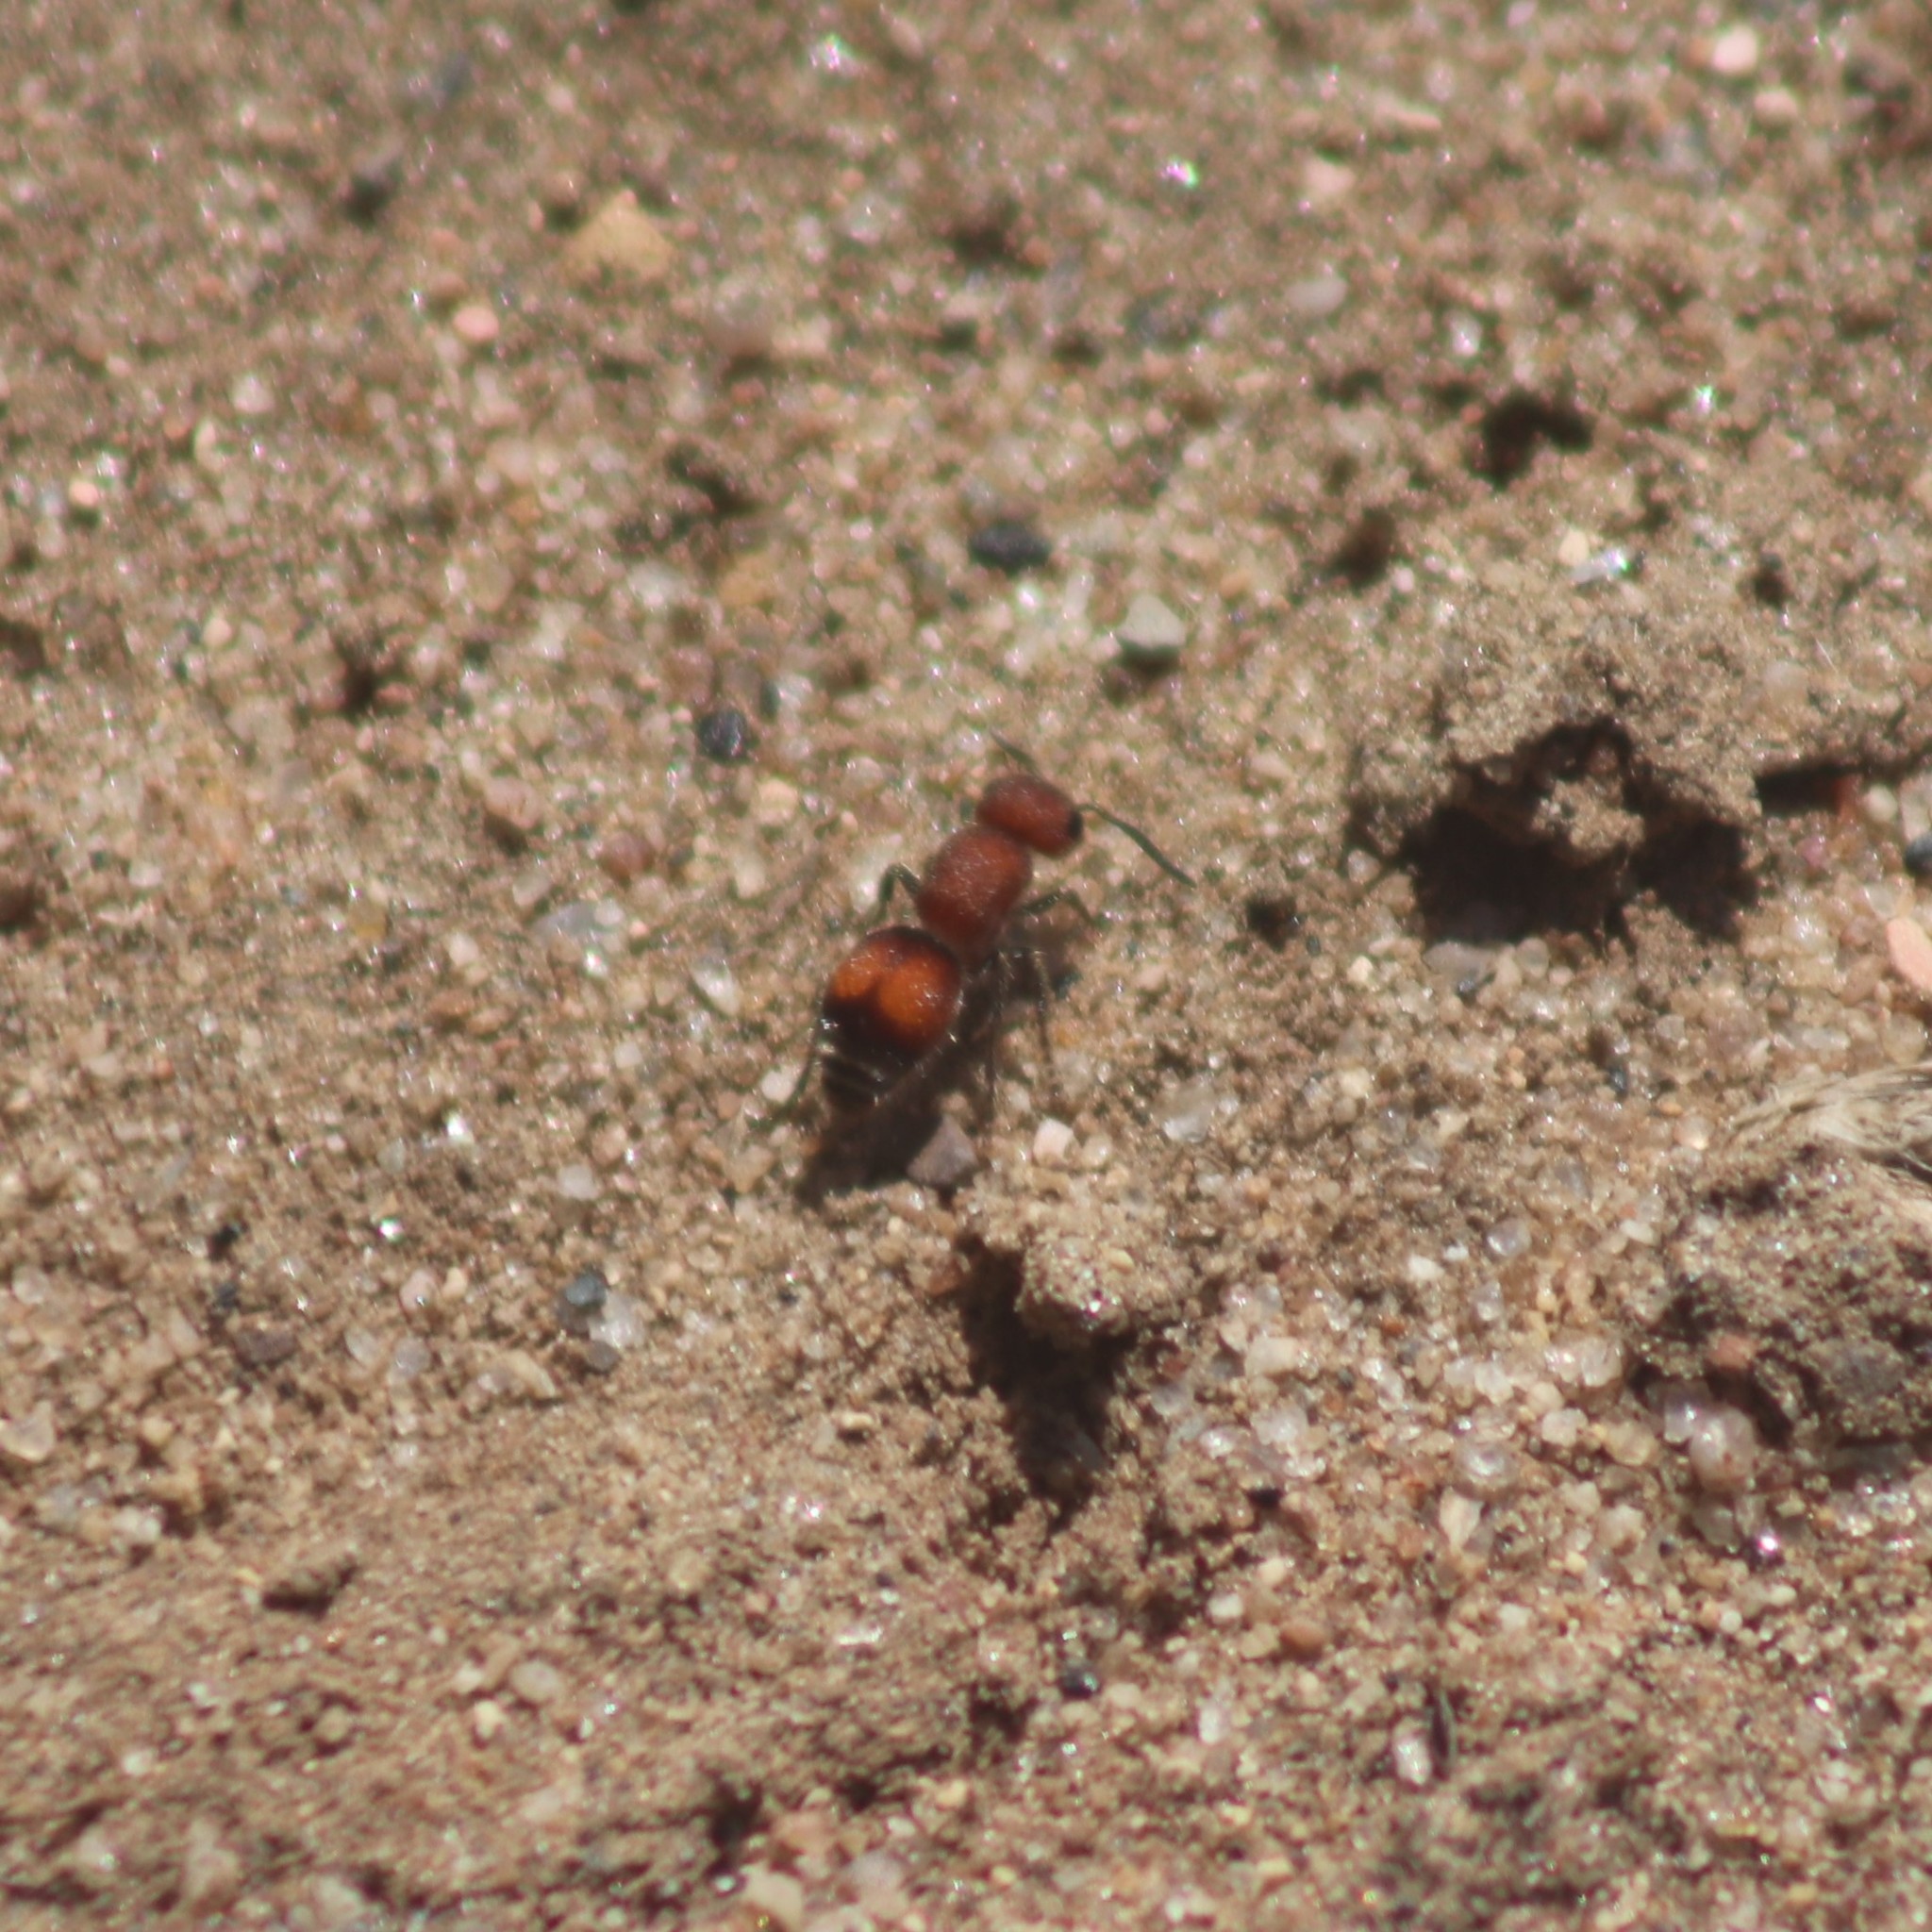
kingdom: Animalia
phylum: Arthropoda
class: Insecta
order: Hymenoptera
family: Mutillidae
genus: Pseudomethoca
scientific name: Pseudomethoca
